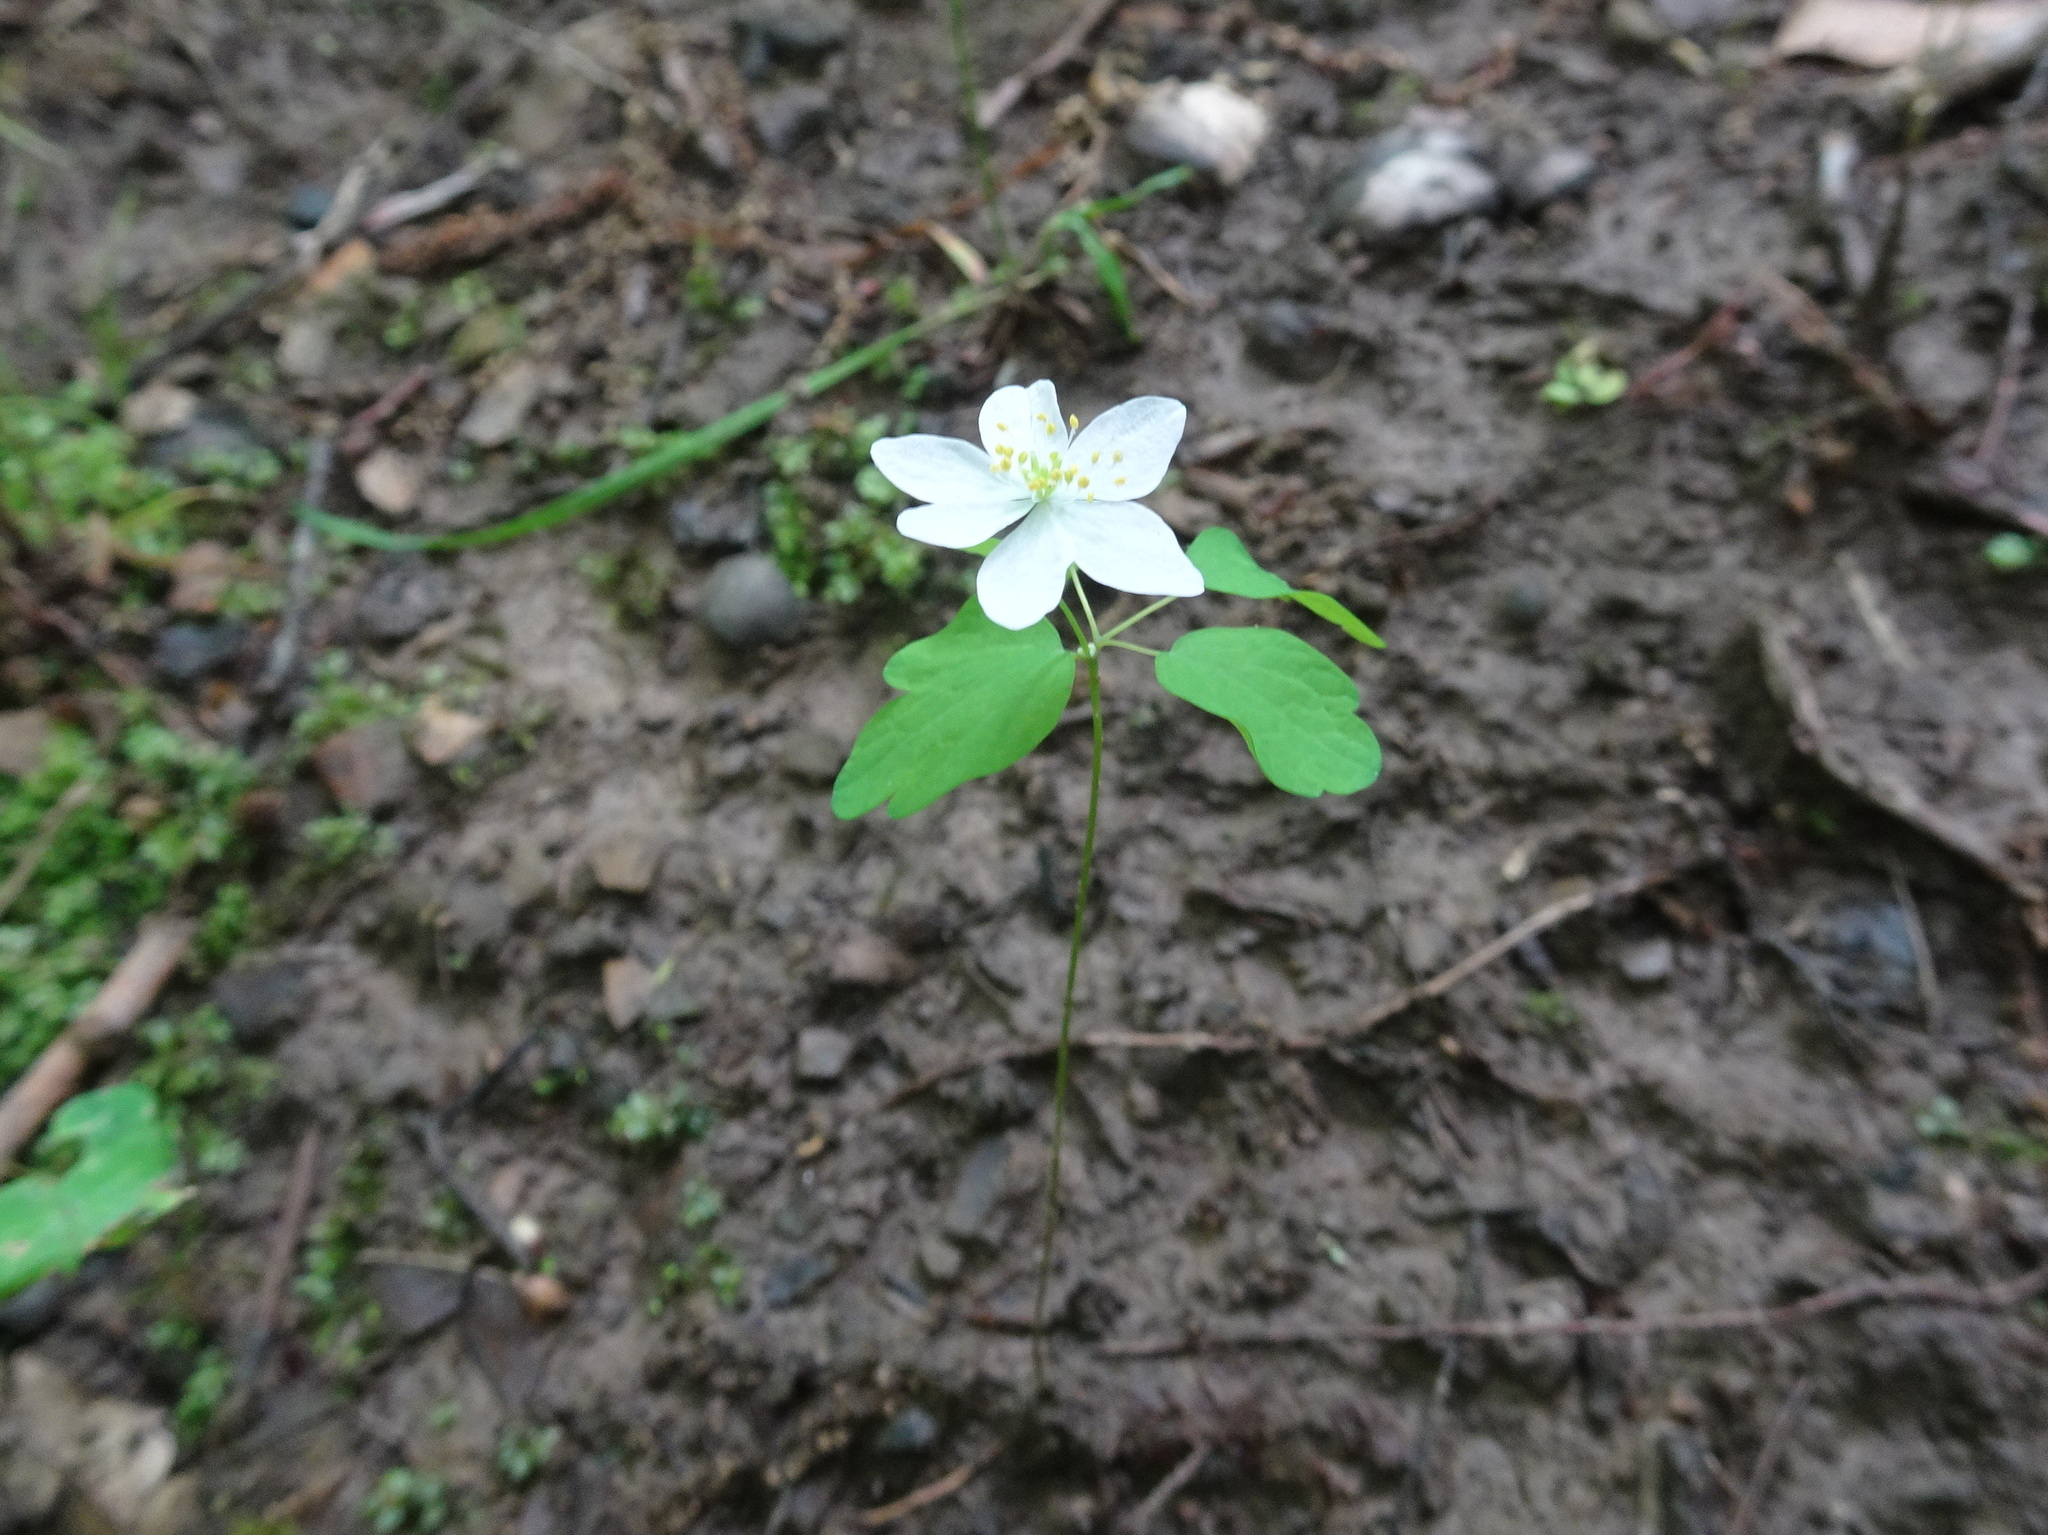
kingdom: Plantae
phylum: Tracheophyta
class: Magnoliopsida
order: Ranunculales
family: Ranunculaceae
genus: Thalictrum
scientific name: Thalictrum thalictroides
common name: Rue-anemone
